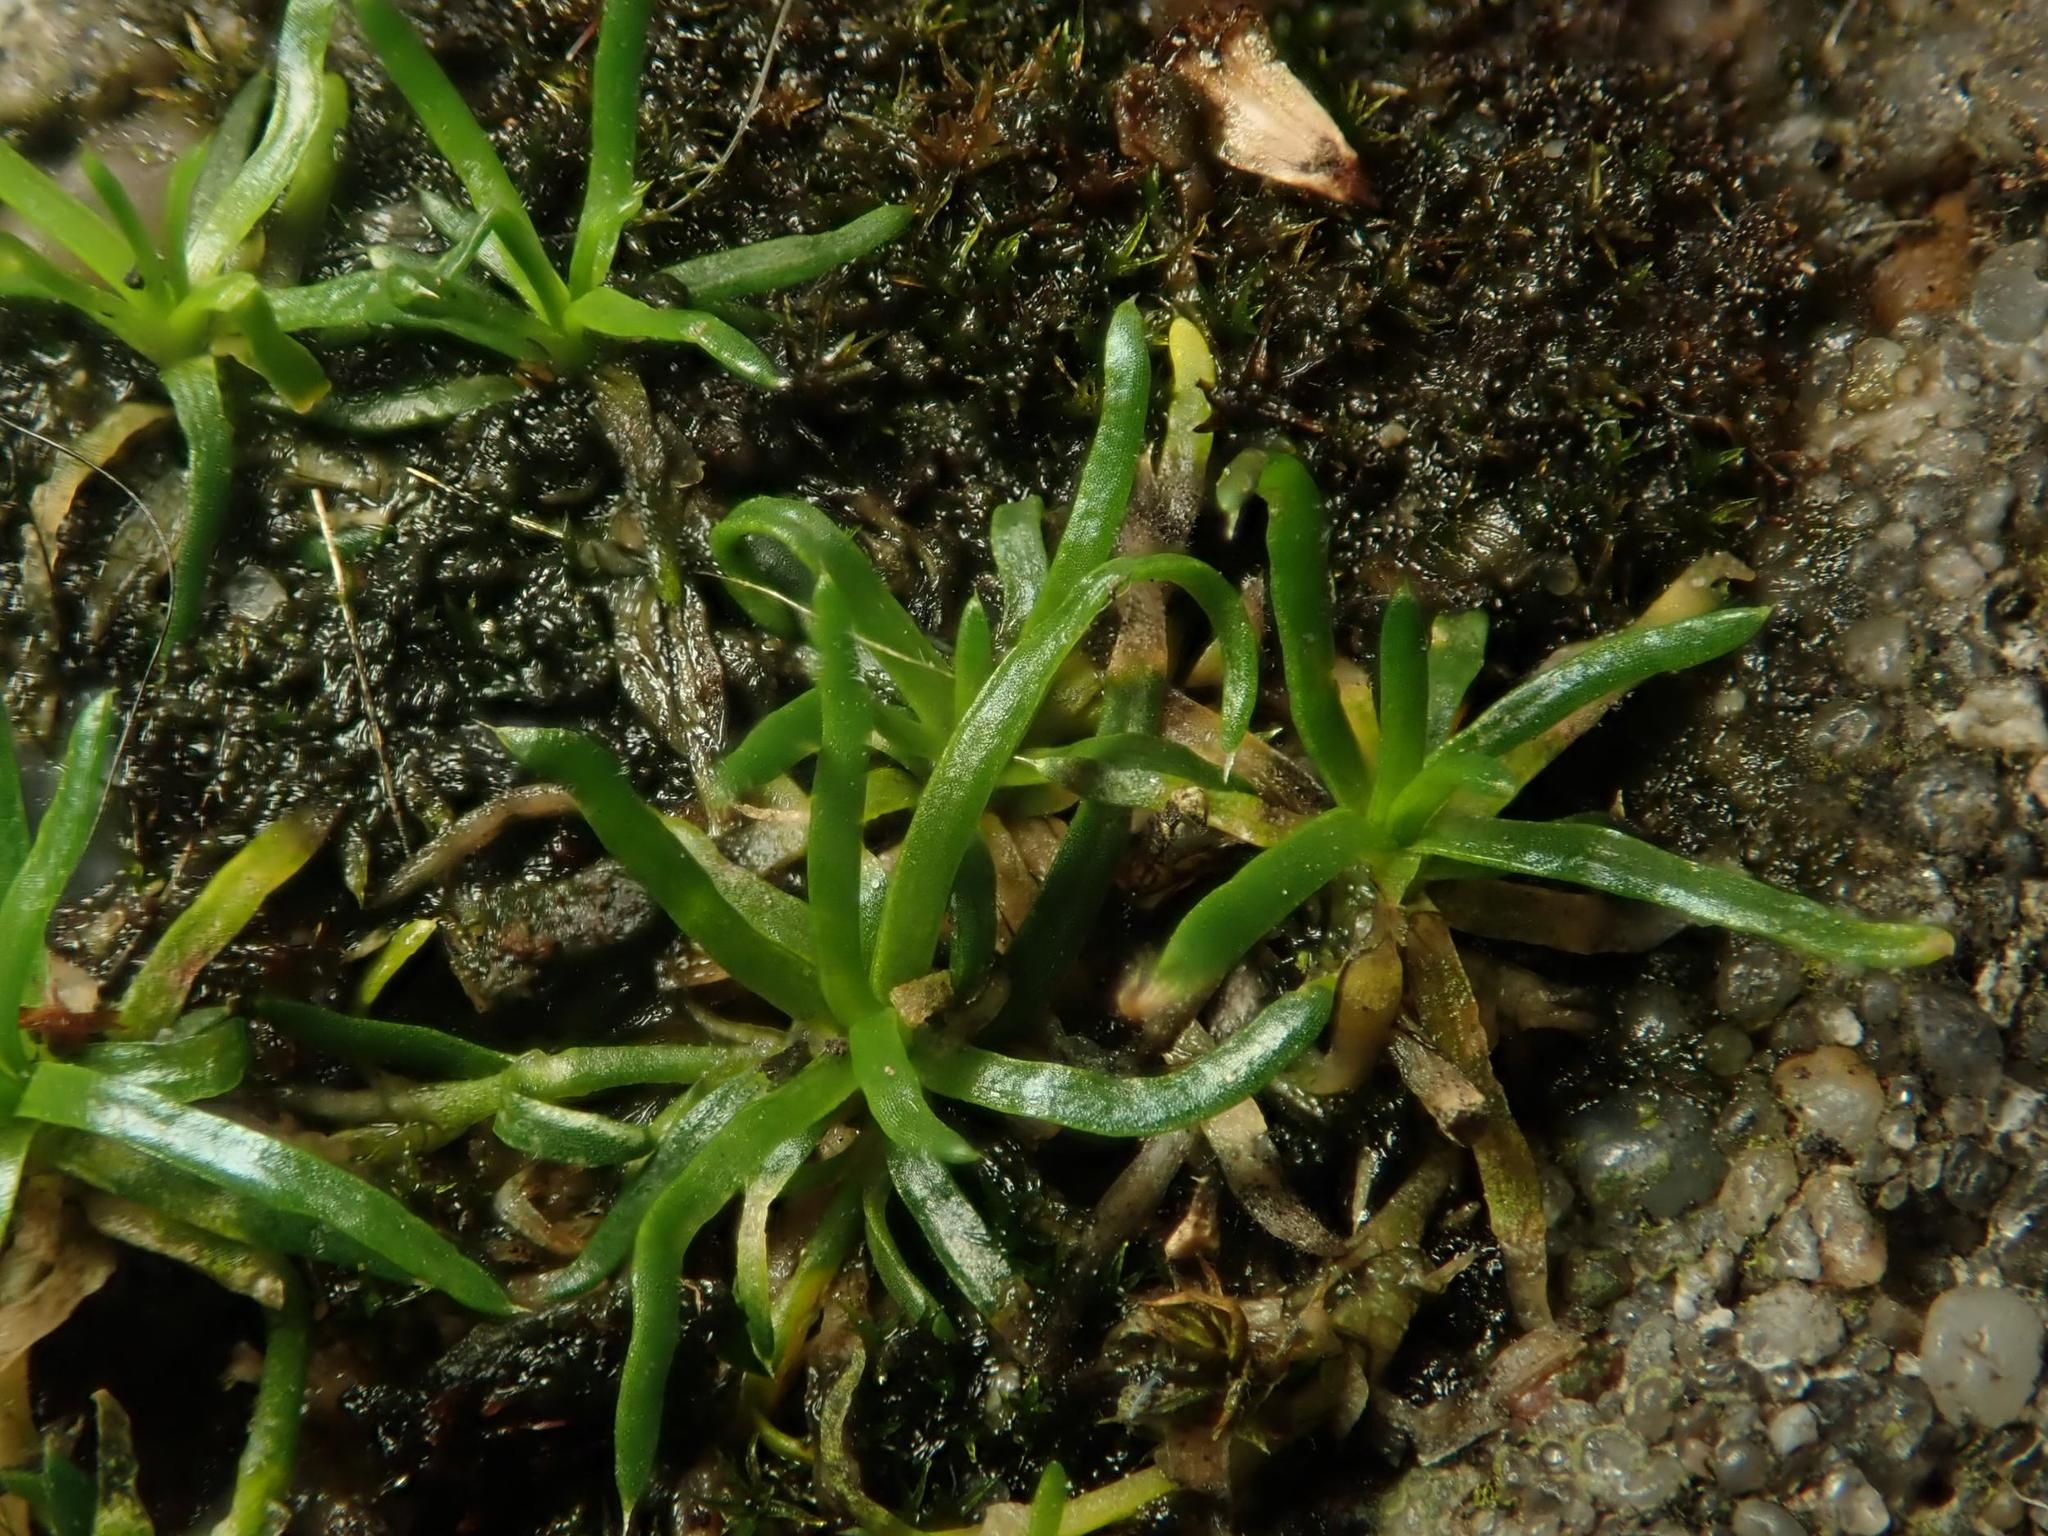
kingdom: Plantae
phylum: Tracheophyta
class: Magnoliopsida
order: Caryophyllales
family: Caryophyllaceae
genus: Sagina
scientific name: Sagina procumbens
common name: Procumbent pearlwort
